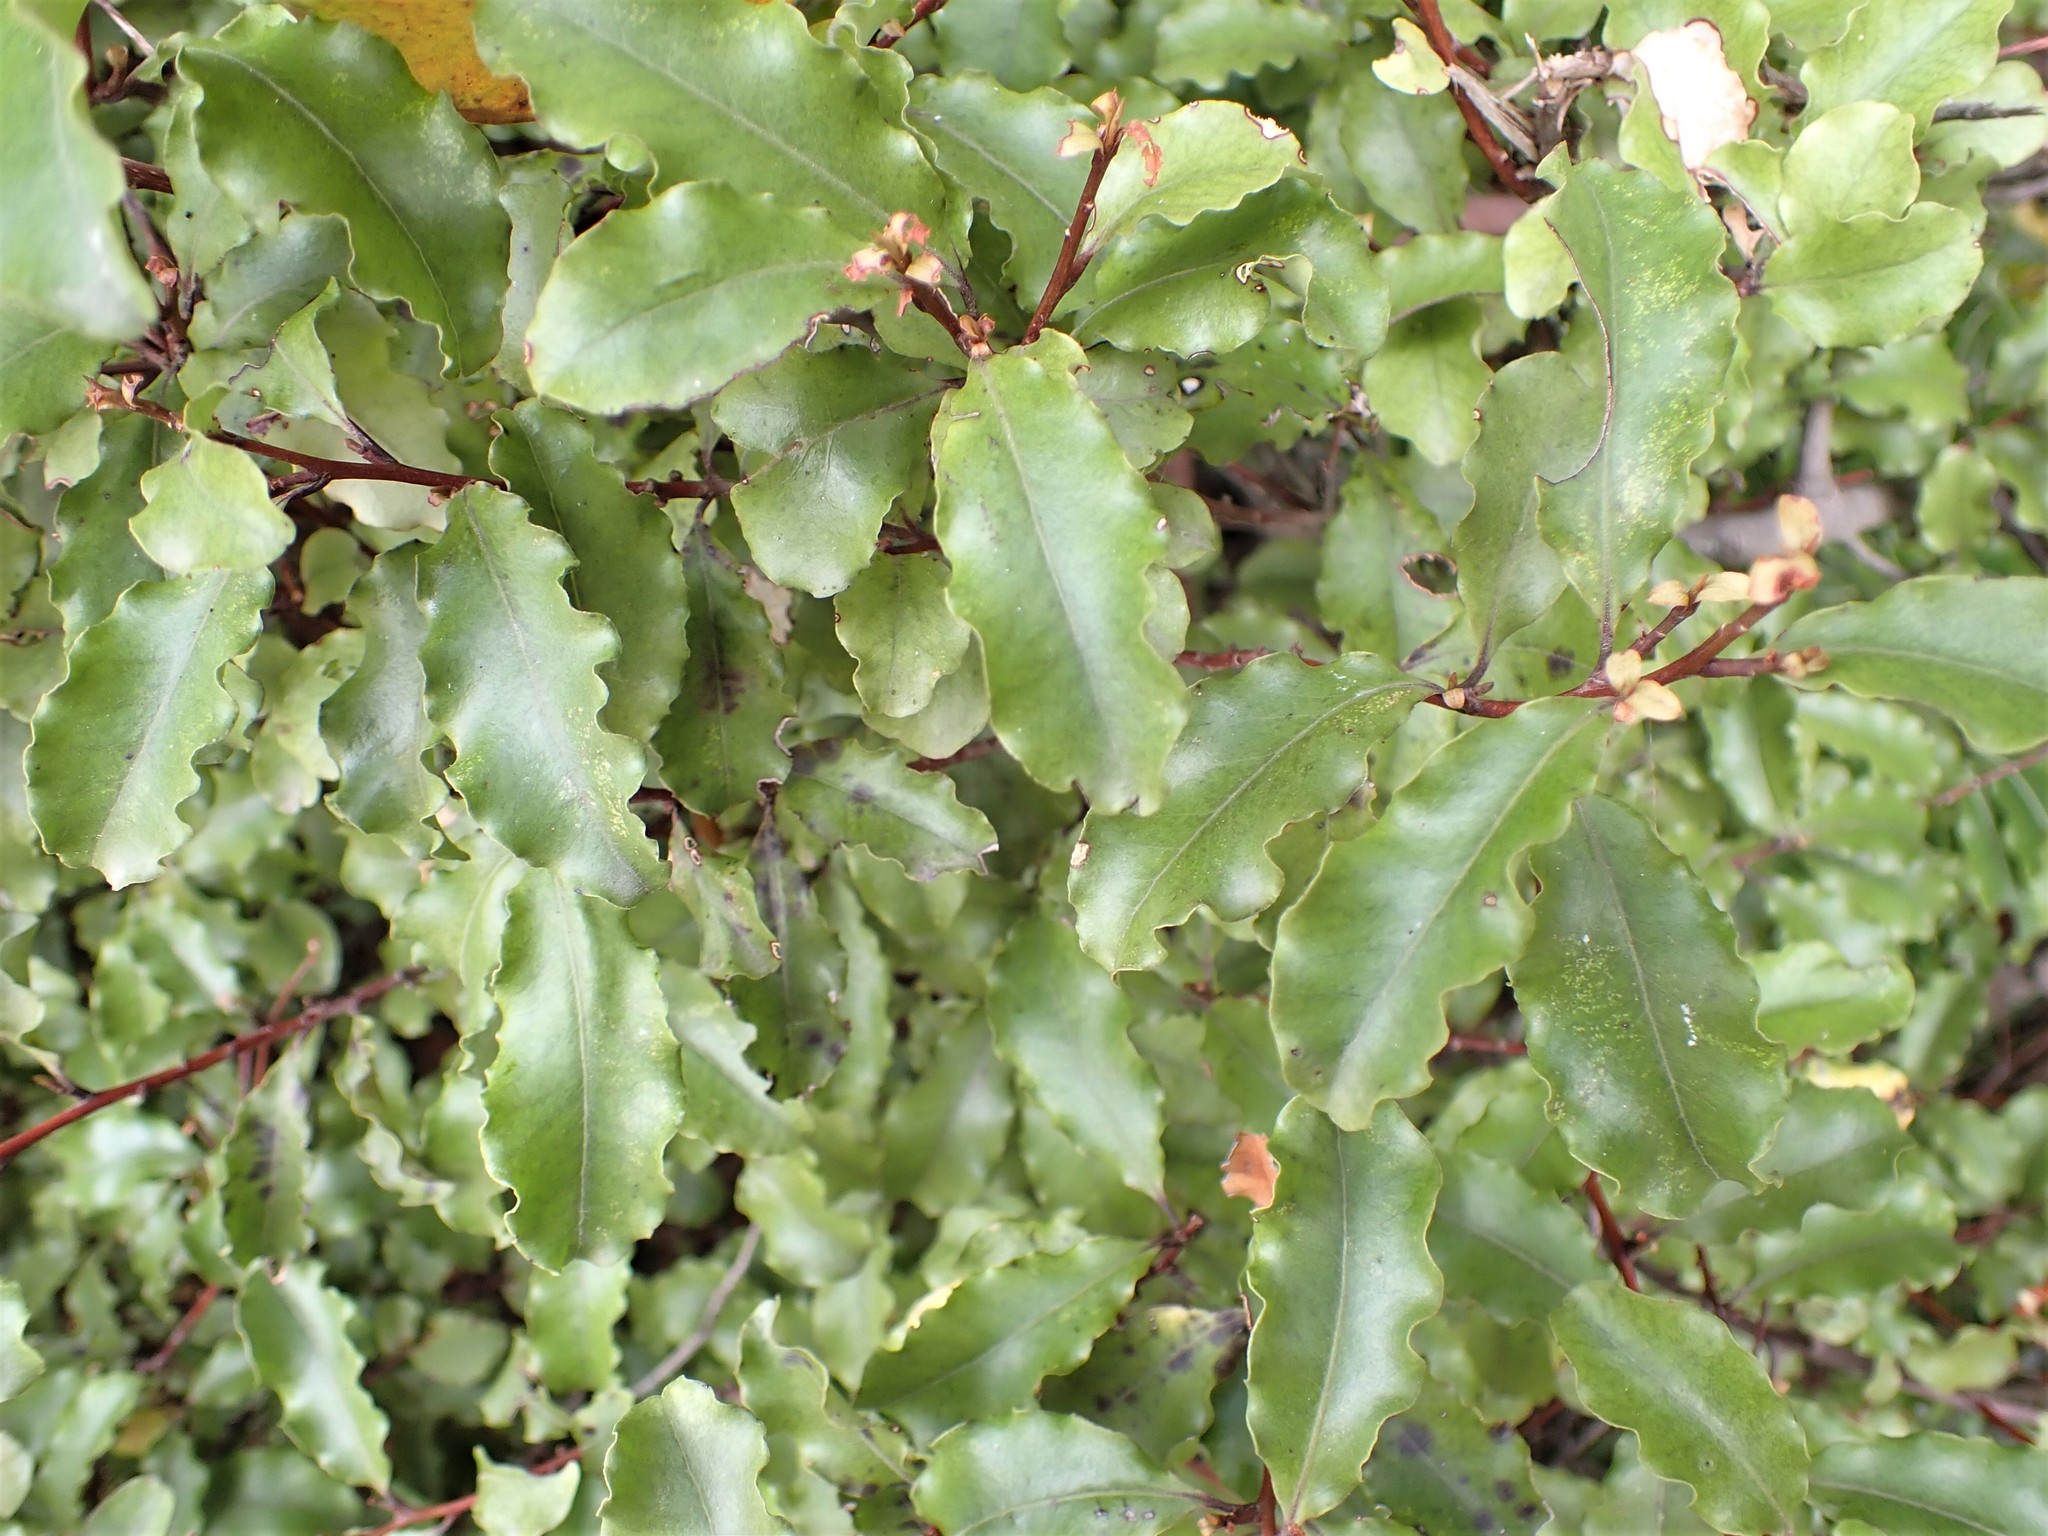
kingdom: Plantae
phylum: Tracheophyta
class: Magnoliopsida
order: Ericales
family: Primulaceae
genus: Myrsine
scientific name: Myrsine australis
